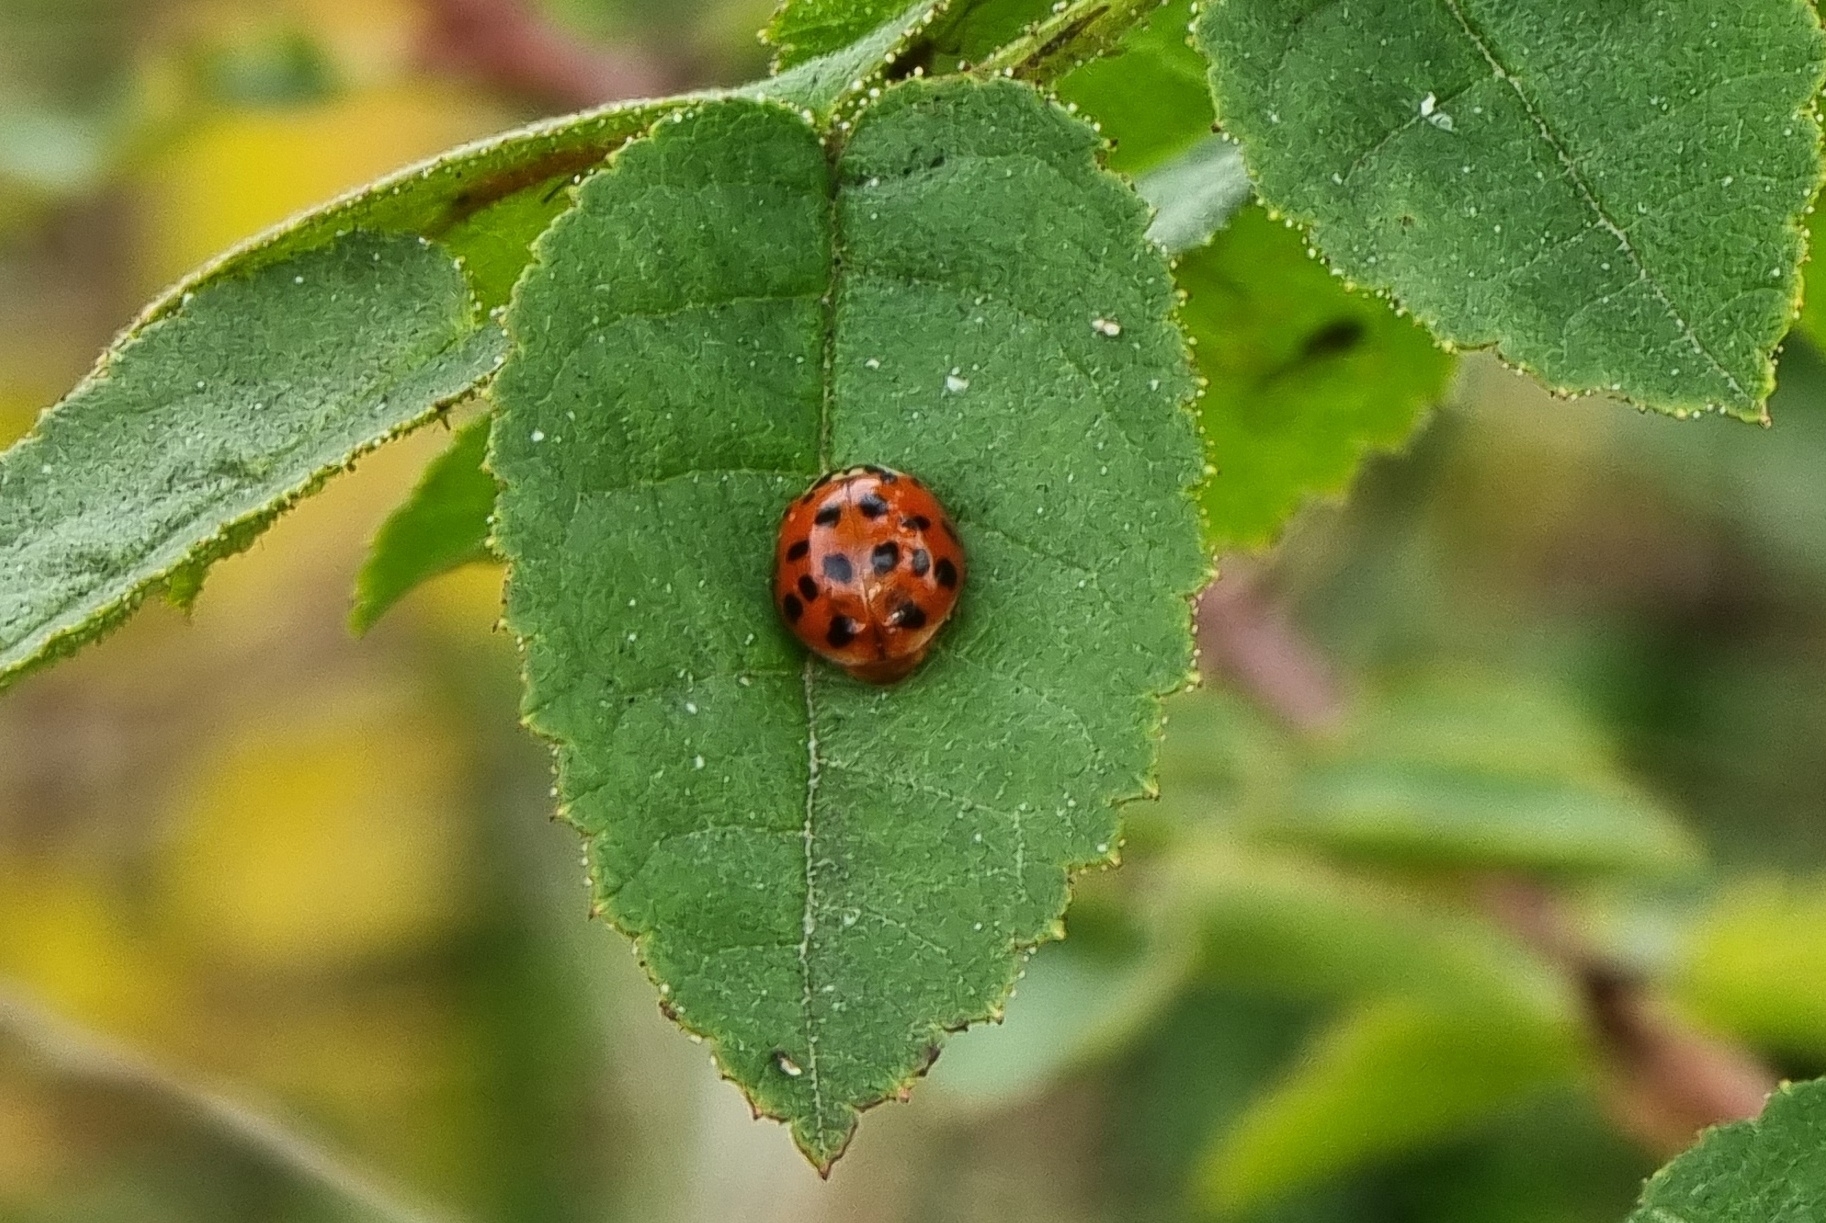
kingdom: Animalia
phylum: Arthropoda
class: Insecta
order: Coleoptera
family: Coccinellidae
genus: Harmonia
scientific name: Harmonia axyridis
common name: Harlequin ladybird
